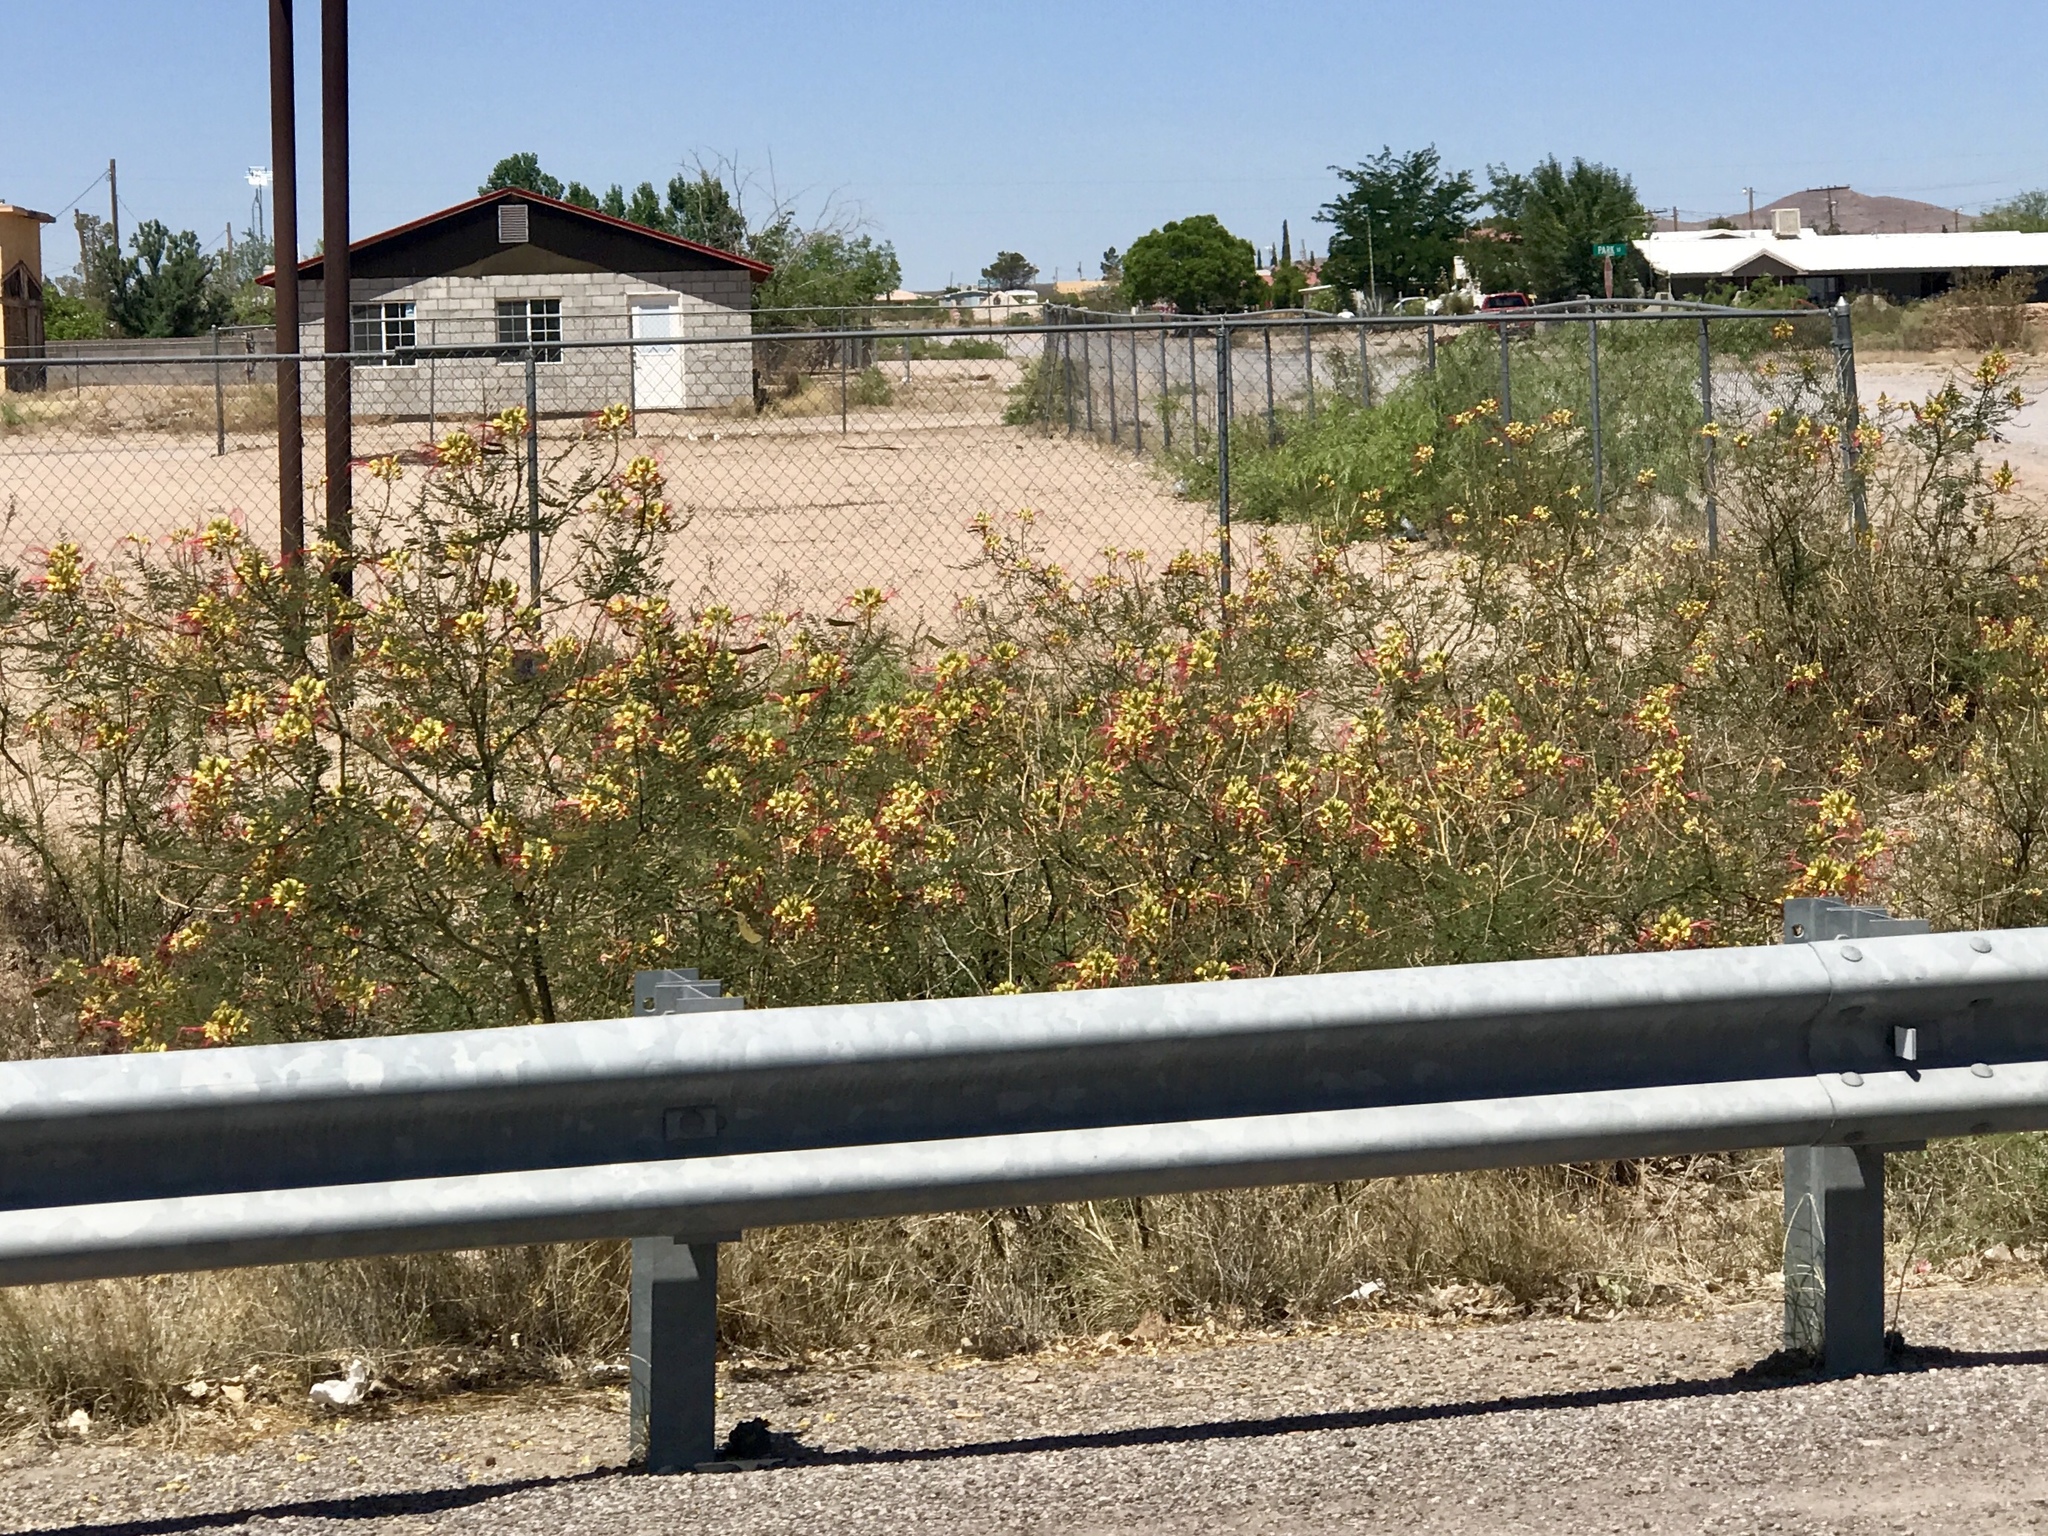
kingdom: Plantae
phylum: Tracheophyta
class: Magnoliopsida
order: Fabales
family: Fabaceae
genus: Erythrostemon
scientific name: Erythrostemon gilliesii
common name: Bird-of-paradise shrub
